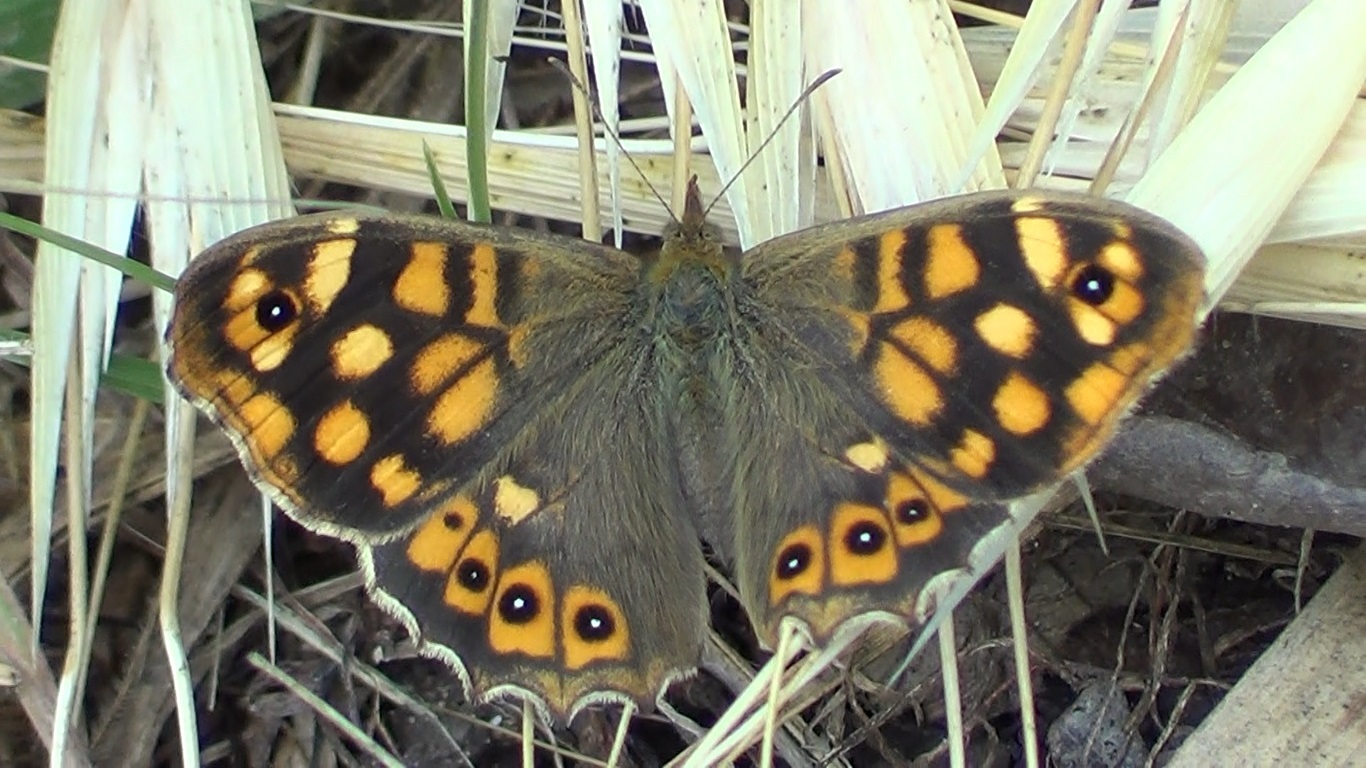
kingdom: Animalia
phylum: Arthropoda
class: Insecta
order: Lepidoptera
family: Nymphalidae
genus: Pararge
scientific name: Pararge aegeria
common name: Speckled wood
